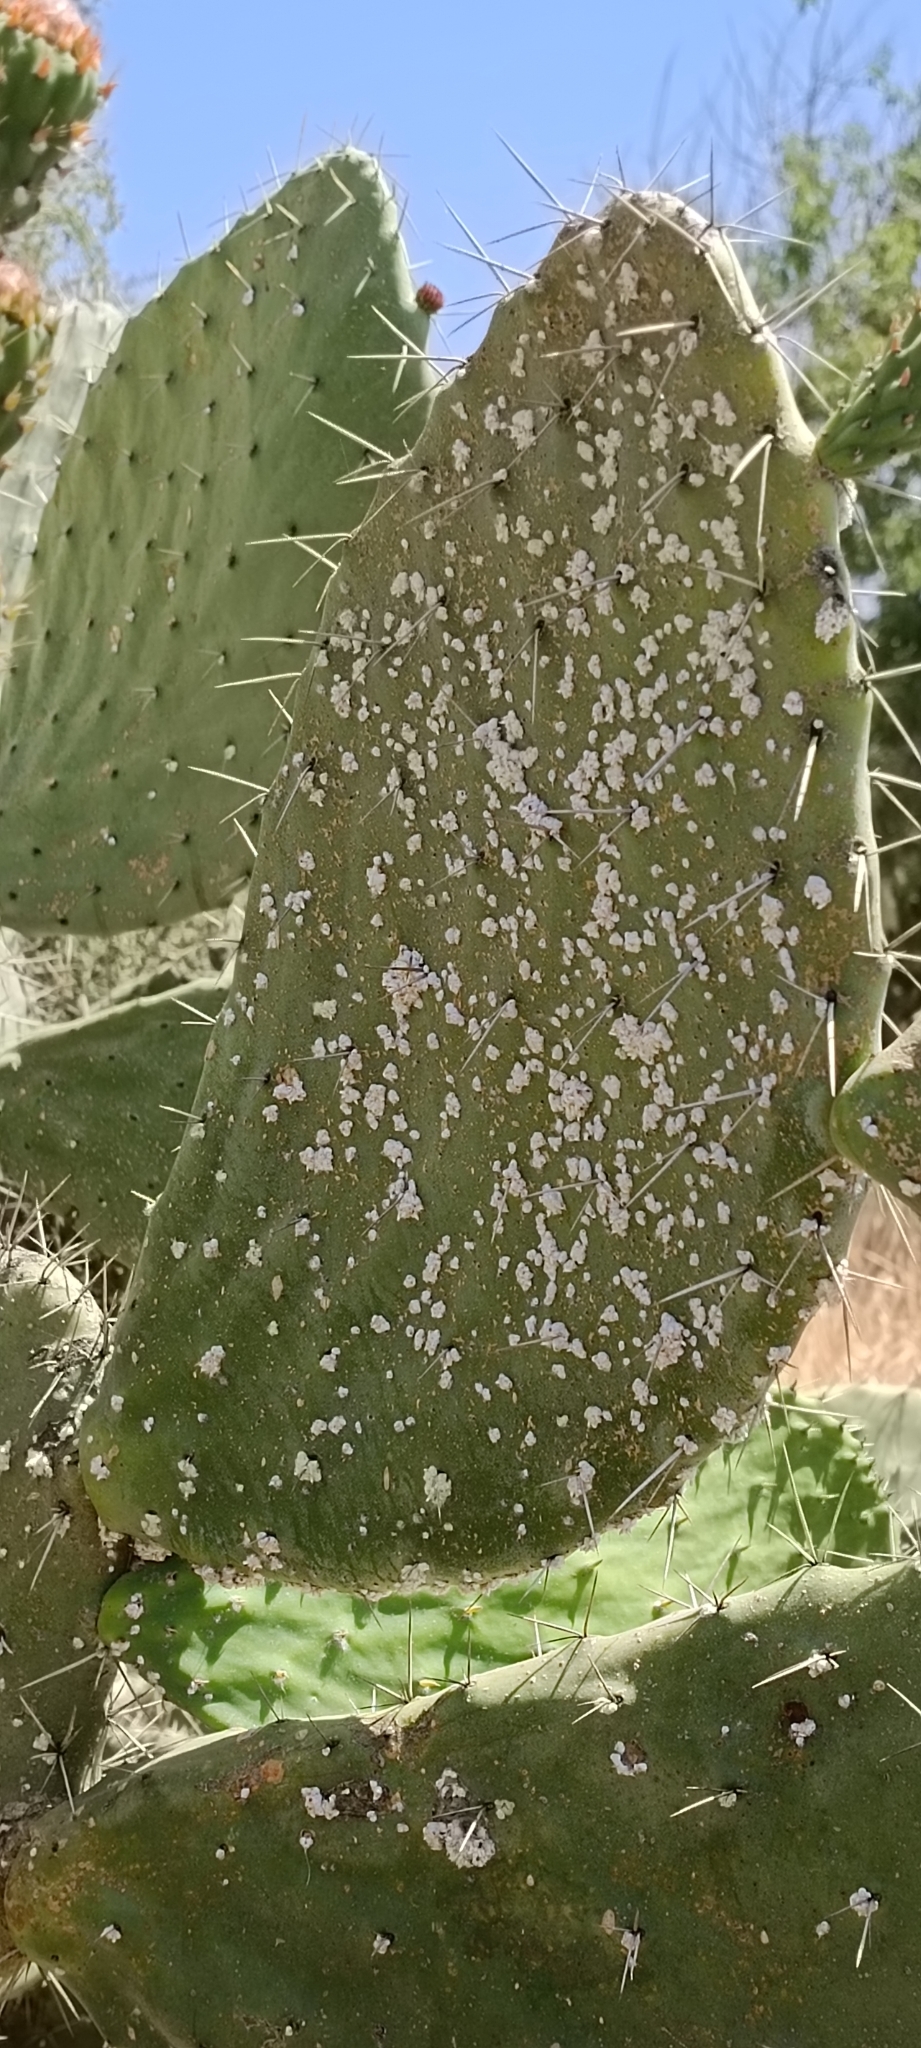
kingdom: Animalia
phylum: Arthropoda
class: Insecta
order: Hemiptera
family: Dactylopiidae
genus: Dactylopius
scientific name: Dactylopius opuntiae
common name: Opuntia cochineal scale
